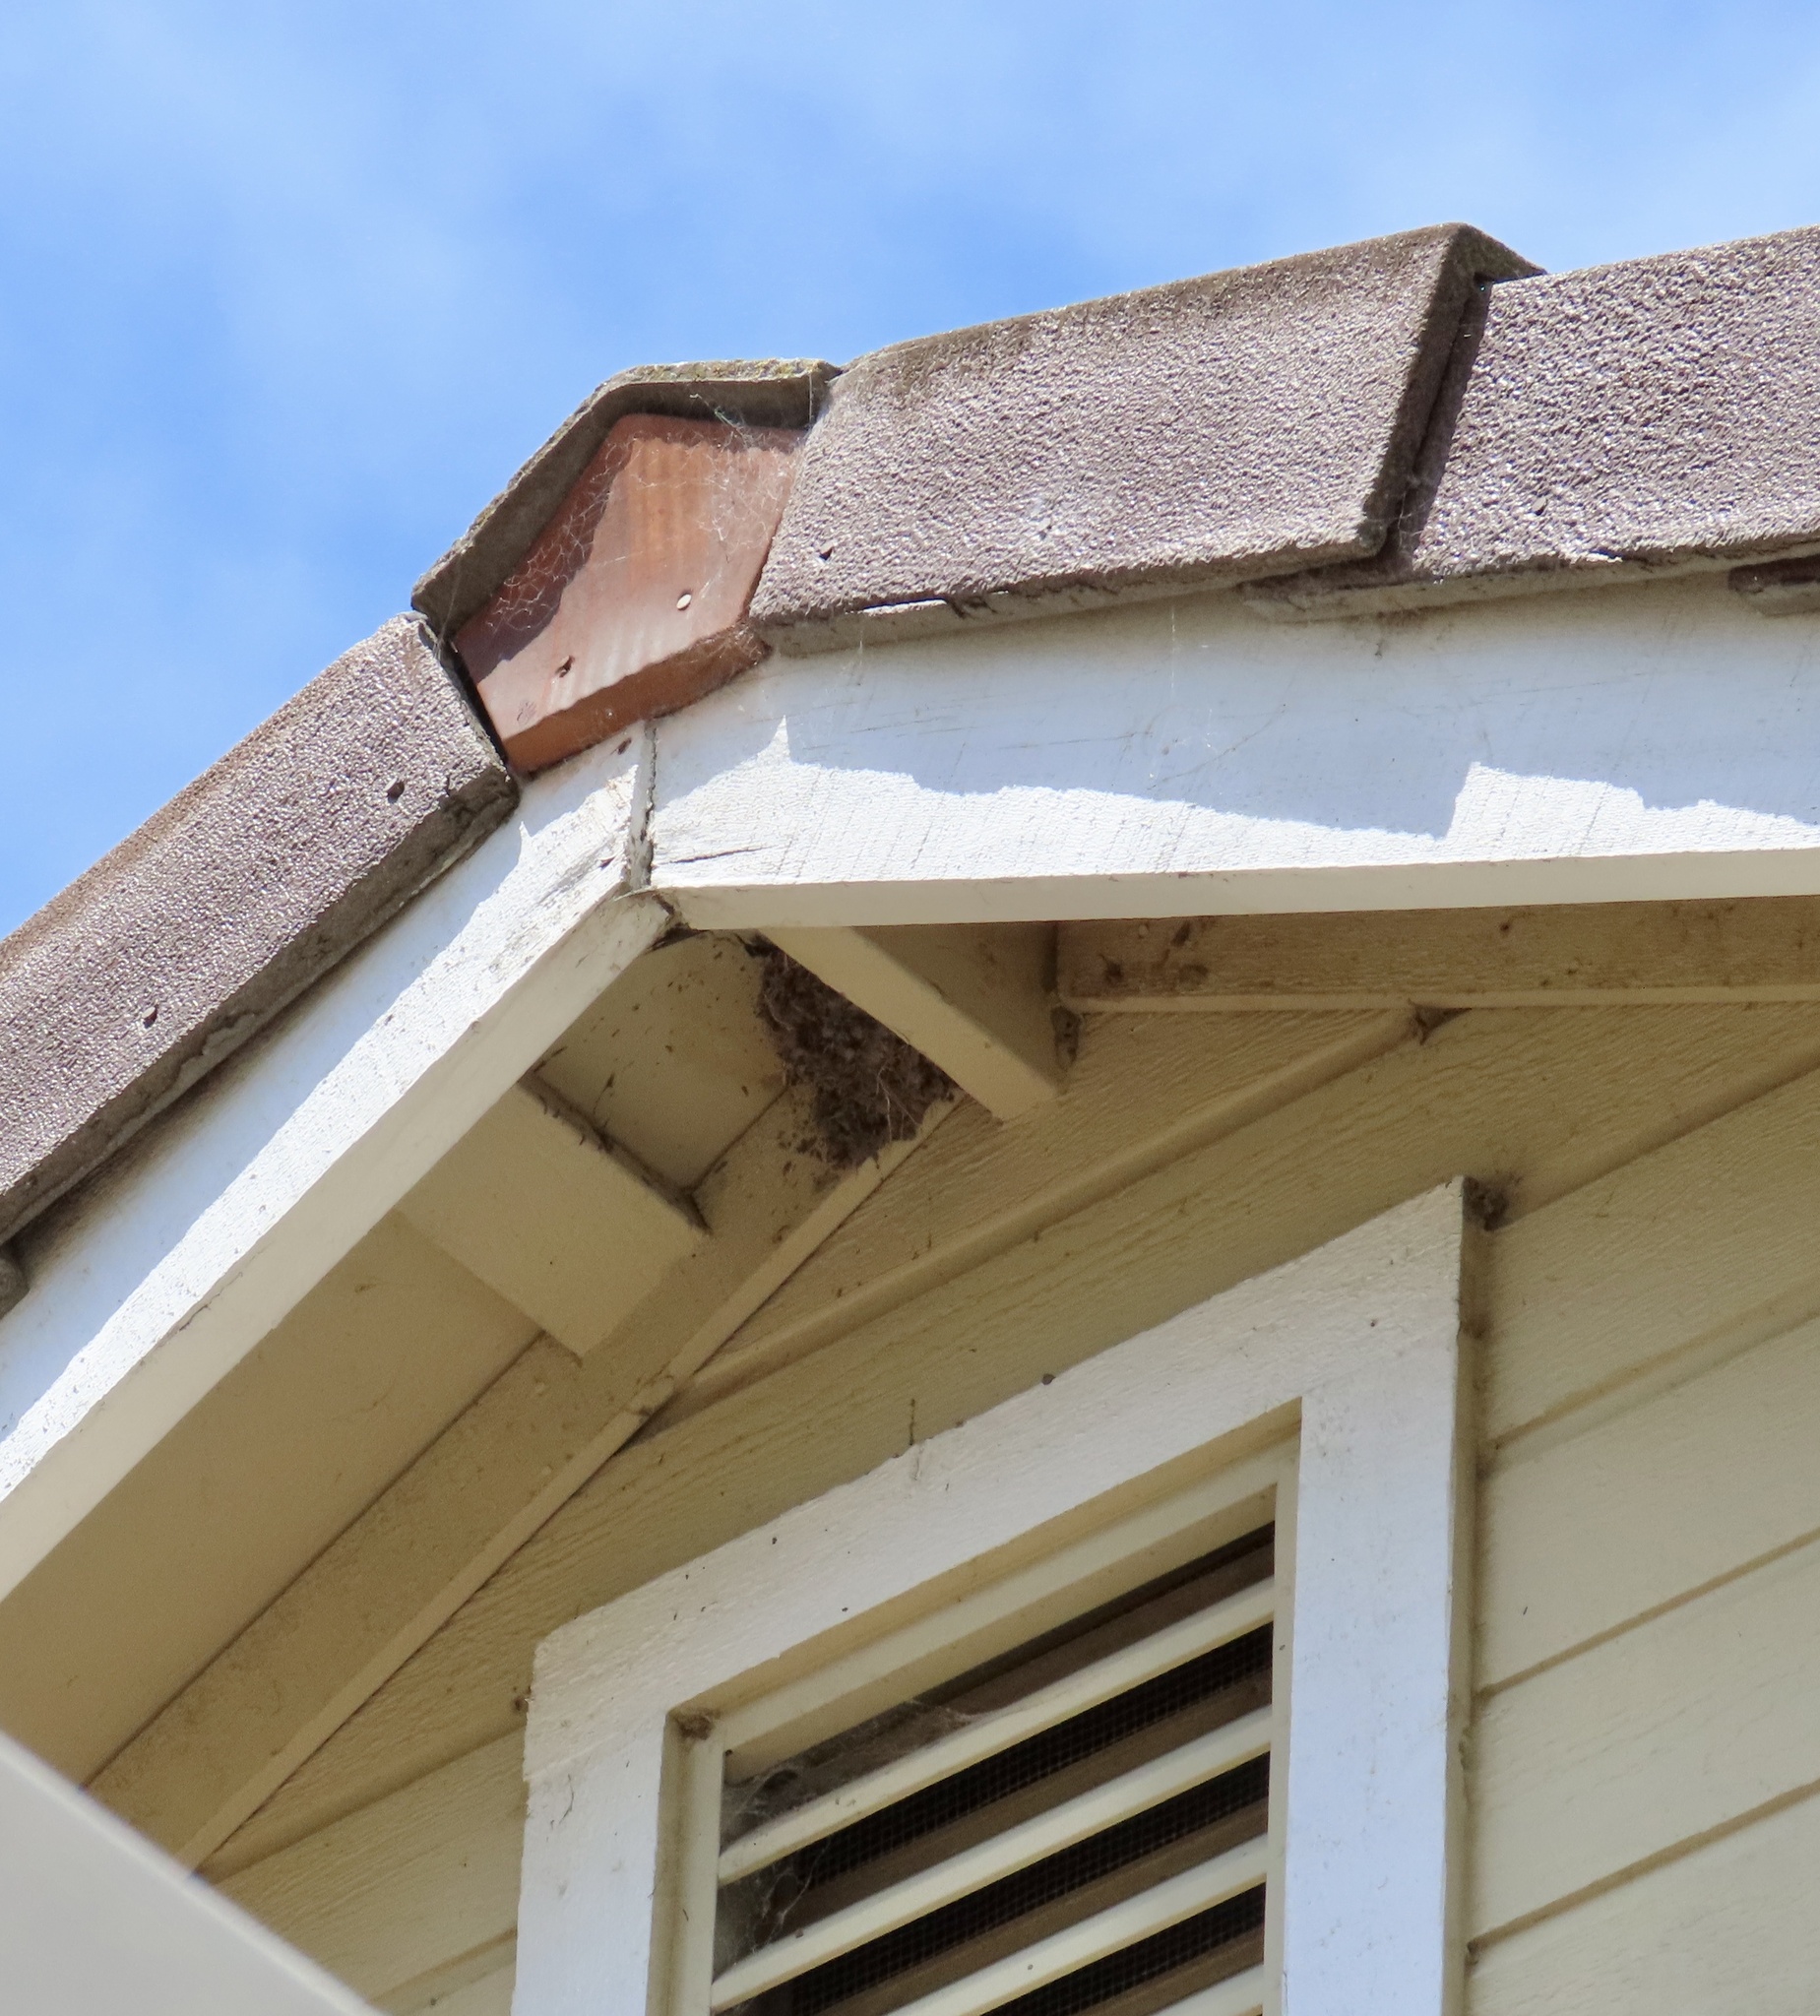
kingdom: Animalia
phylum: Chordata
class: Aves
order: Passeriformes
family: Tyrannidae
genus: Sayornis
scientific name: Sayornis nigricans
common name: Black phoebe
